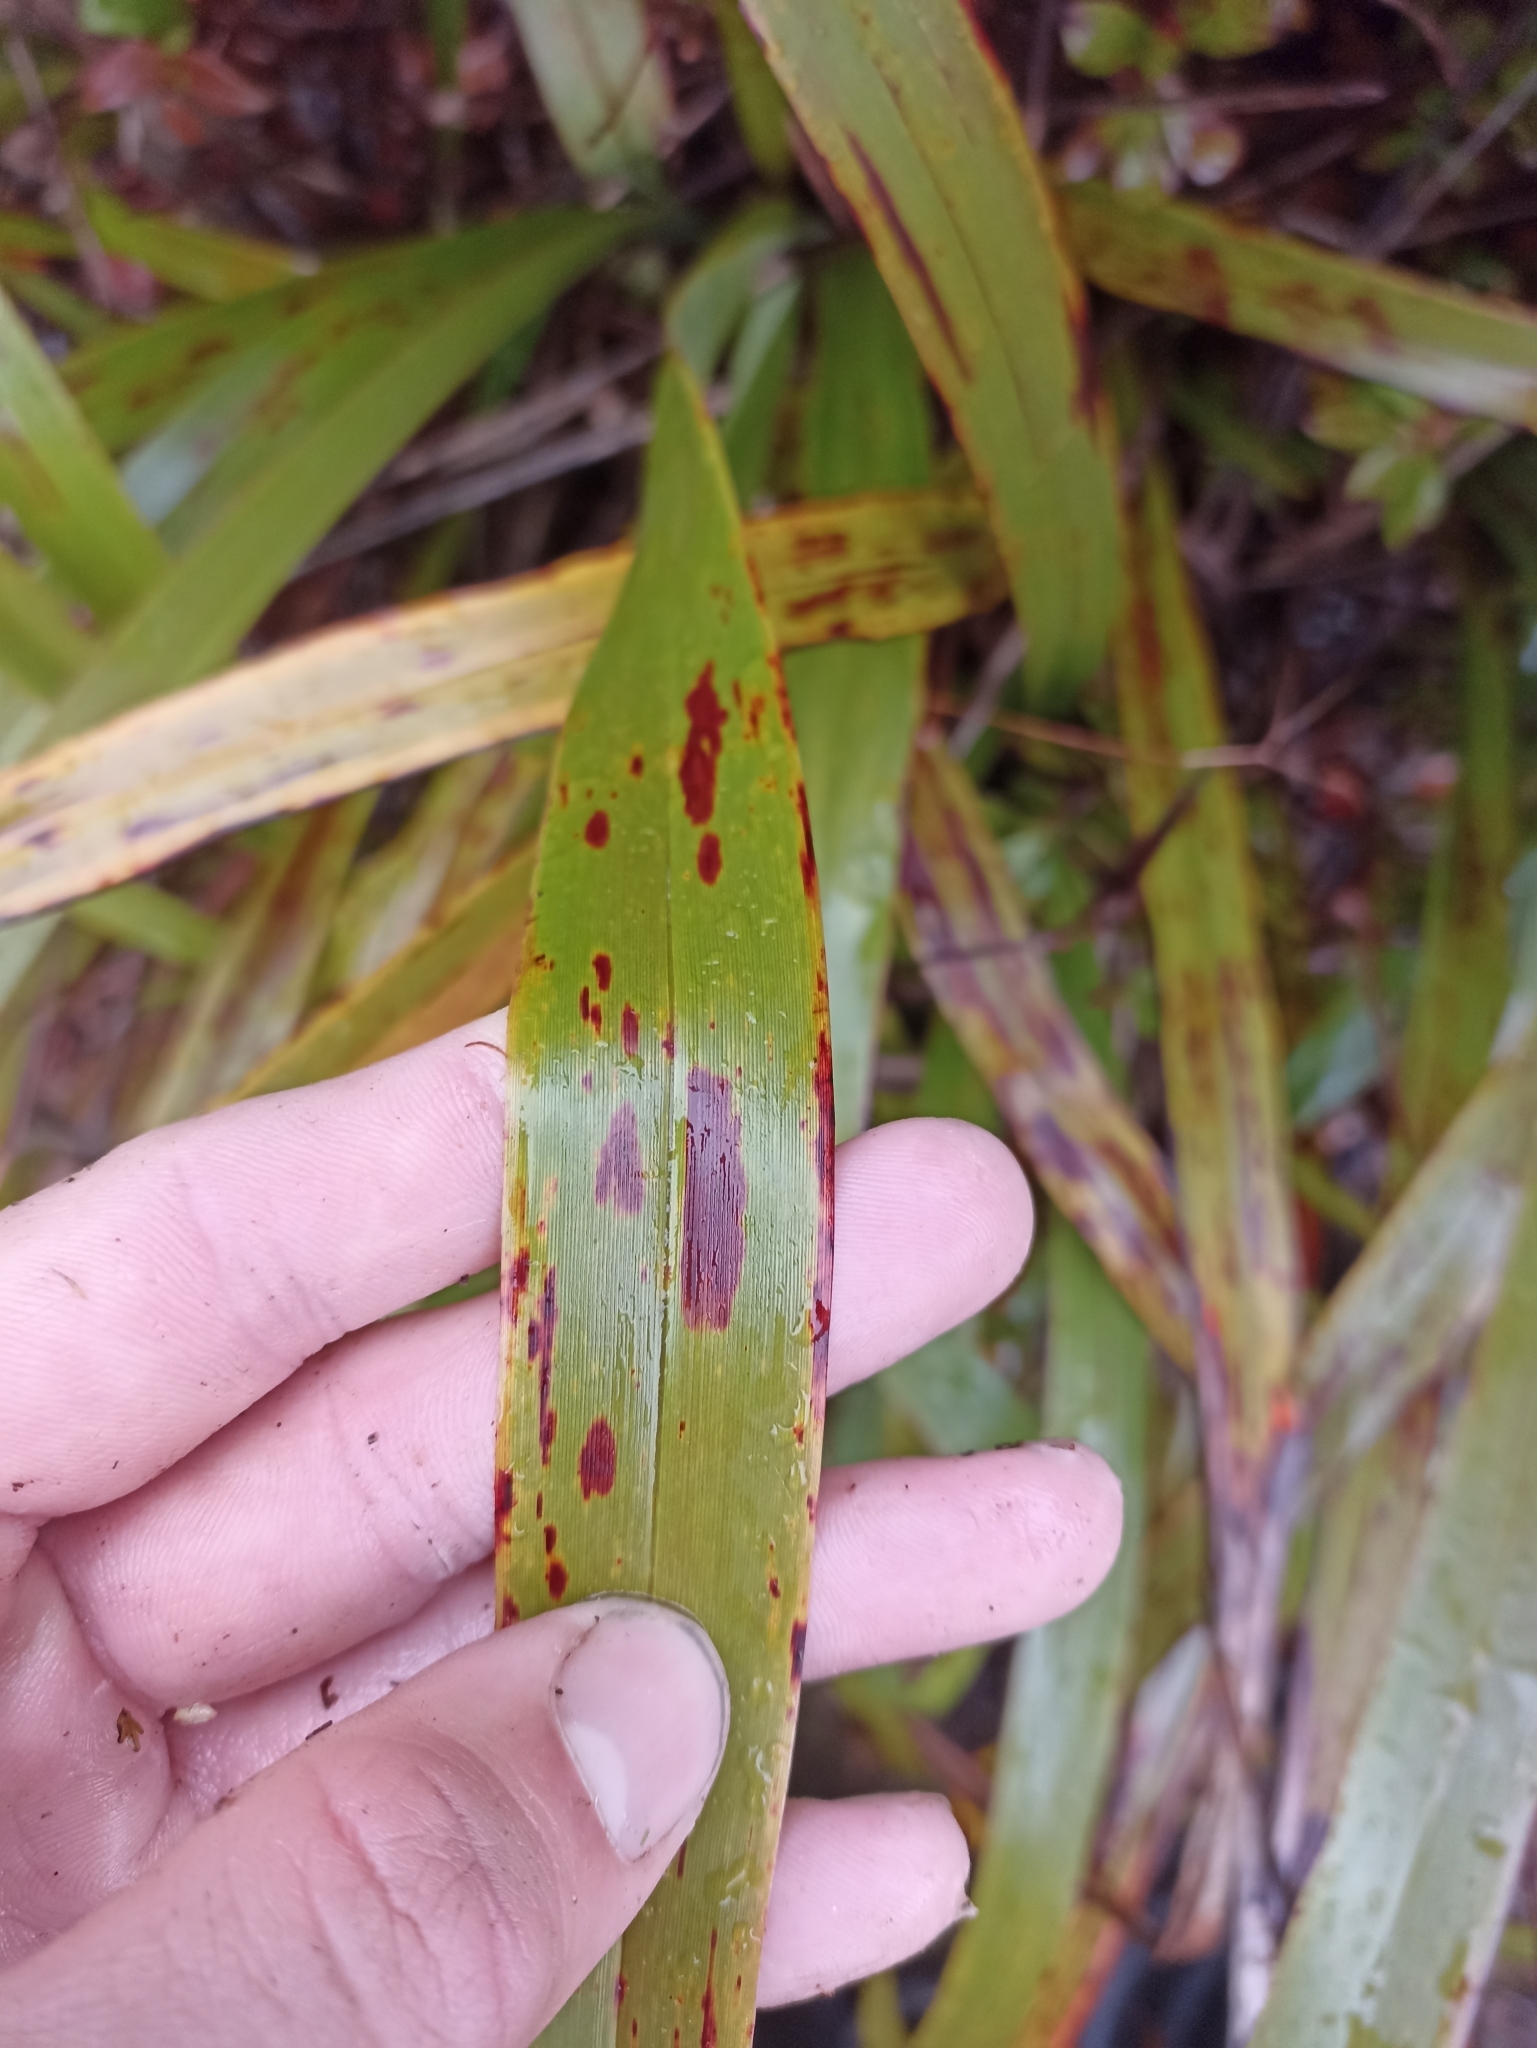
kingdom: Plantae
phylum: Tracheophyta
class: Liliopsida
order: Asparagales
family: Asphodelaceae
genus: Dianella
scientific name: Dianella nigra
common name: New zealand-blueberry
